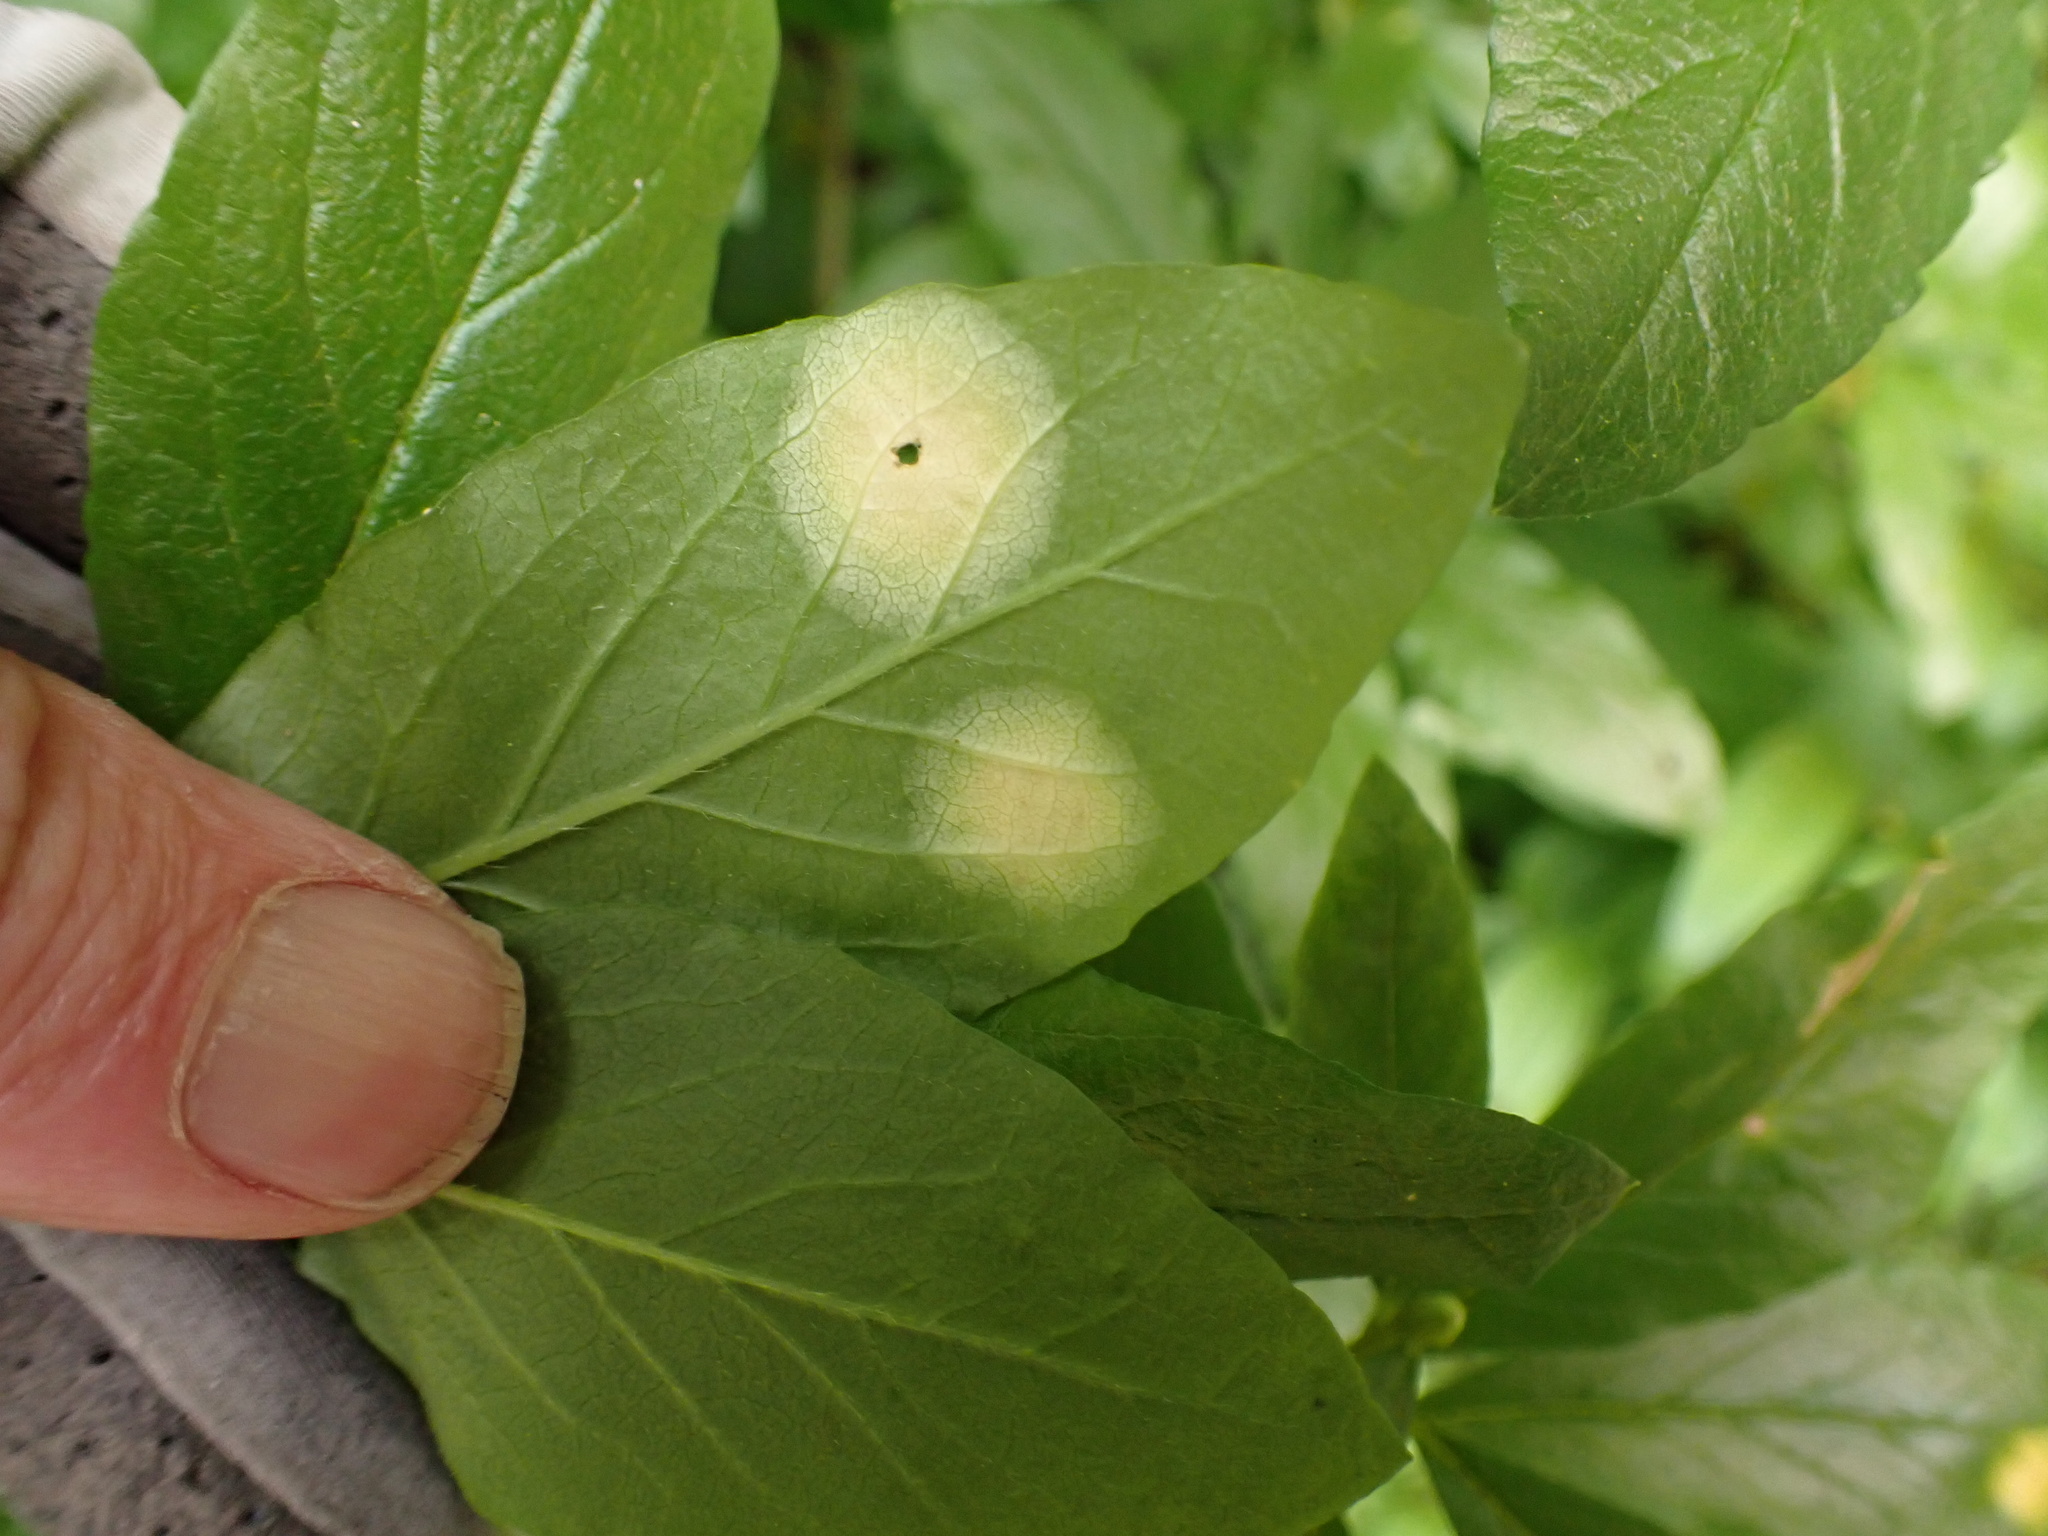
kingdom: Fungi
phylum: Basidiomycota
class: Exobasidiomycetes
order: Exobasidiales
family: Exobasidiaceae
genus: Exobasidium
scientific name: Exobasidium burtii
